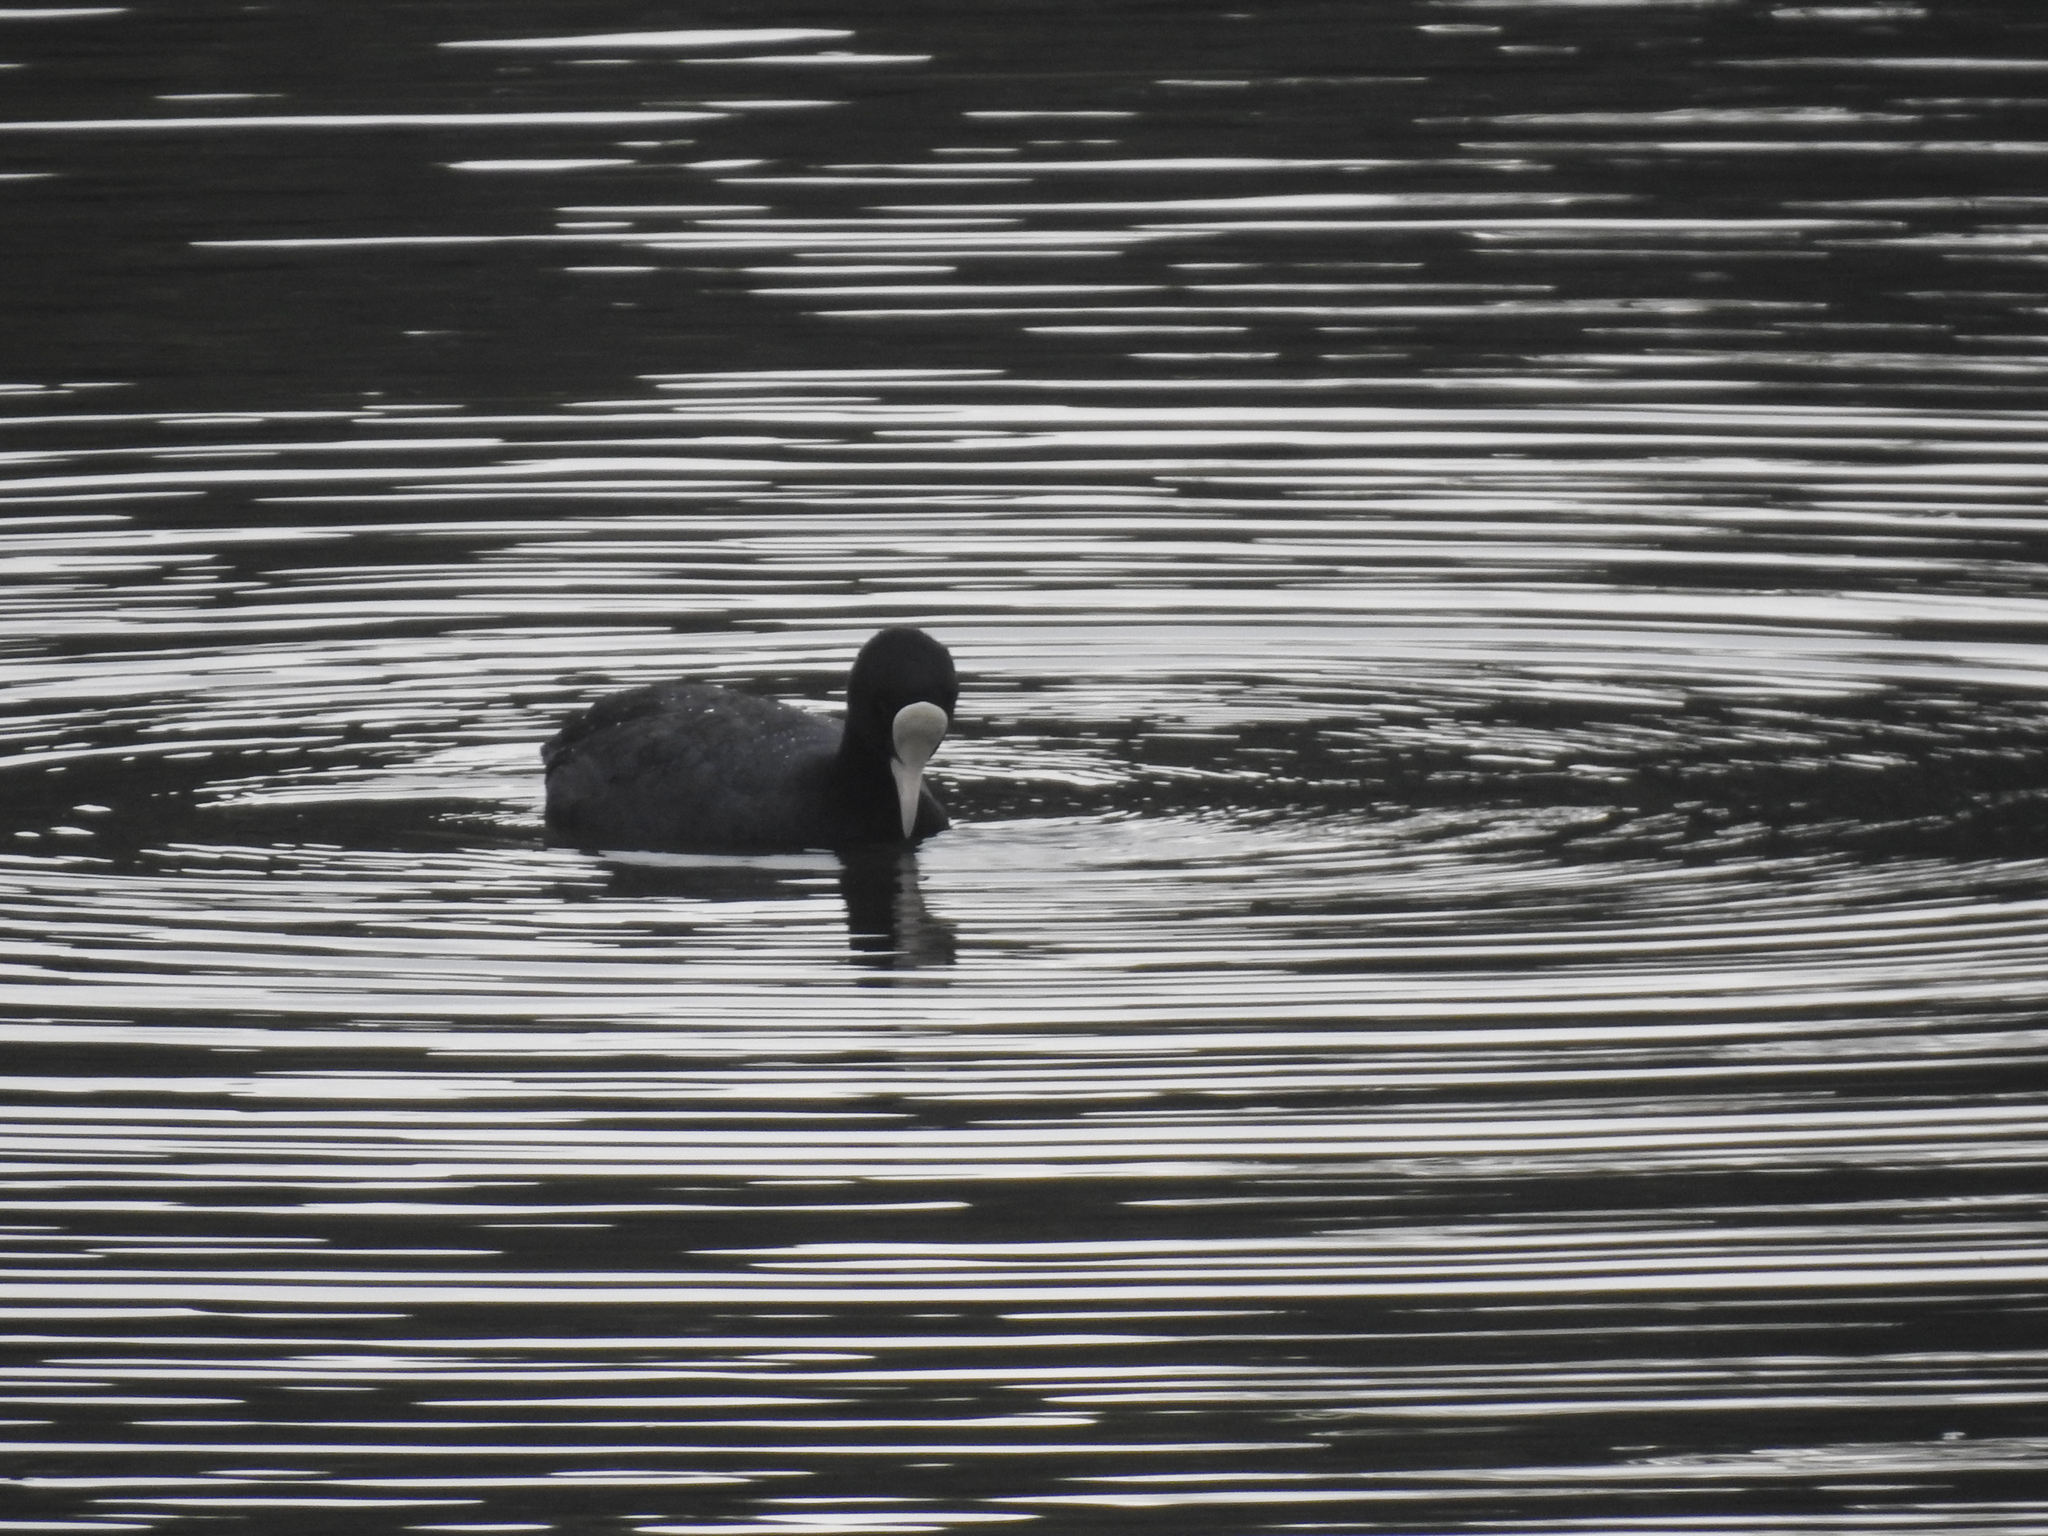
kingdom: Animalia
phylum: Chordata
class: Aves
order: Gruiformes
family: Rallidae
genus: Fulica
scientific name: Fulica atra
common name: Eurasian coot
